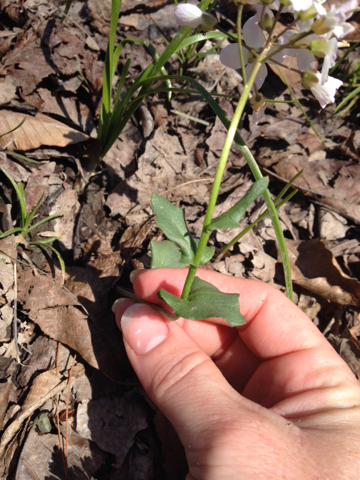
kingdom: Plantae
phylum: Tracheophyta
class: Magnoliopsida
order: Brassicales
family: Brassicaceae
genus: Cardamine
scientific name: Cardamine douglassii
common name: Purple cress
